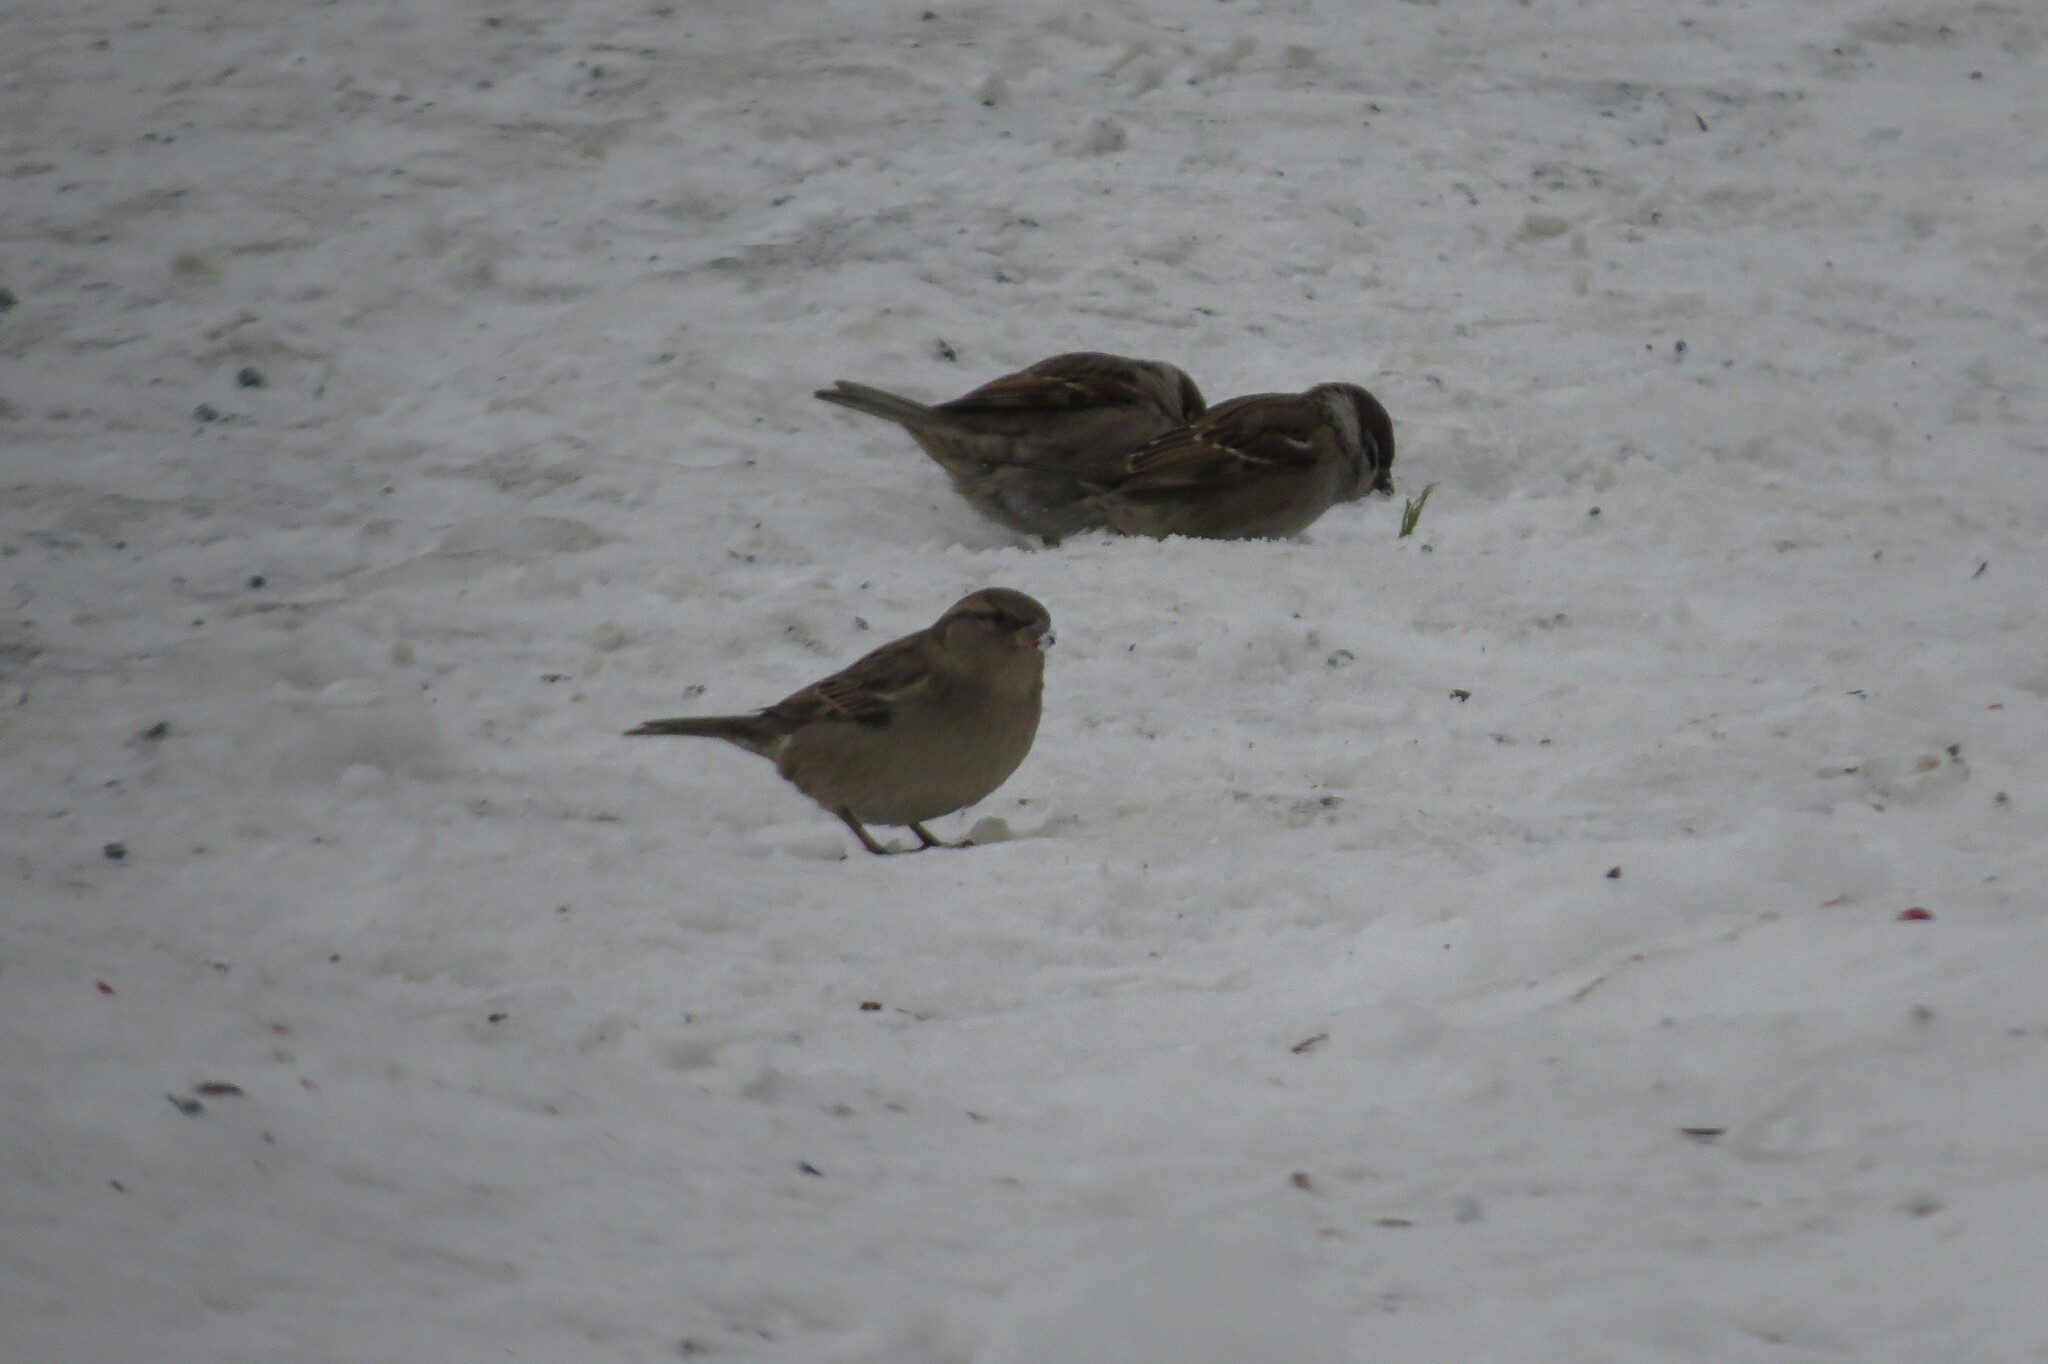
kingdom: Animalia
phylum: Chordata
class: Aves
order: Passeriformes
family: Passeridae
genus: Passer
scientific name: Passer domesticus
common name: House sparrow
